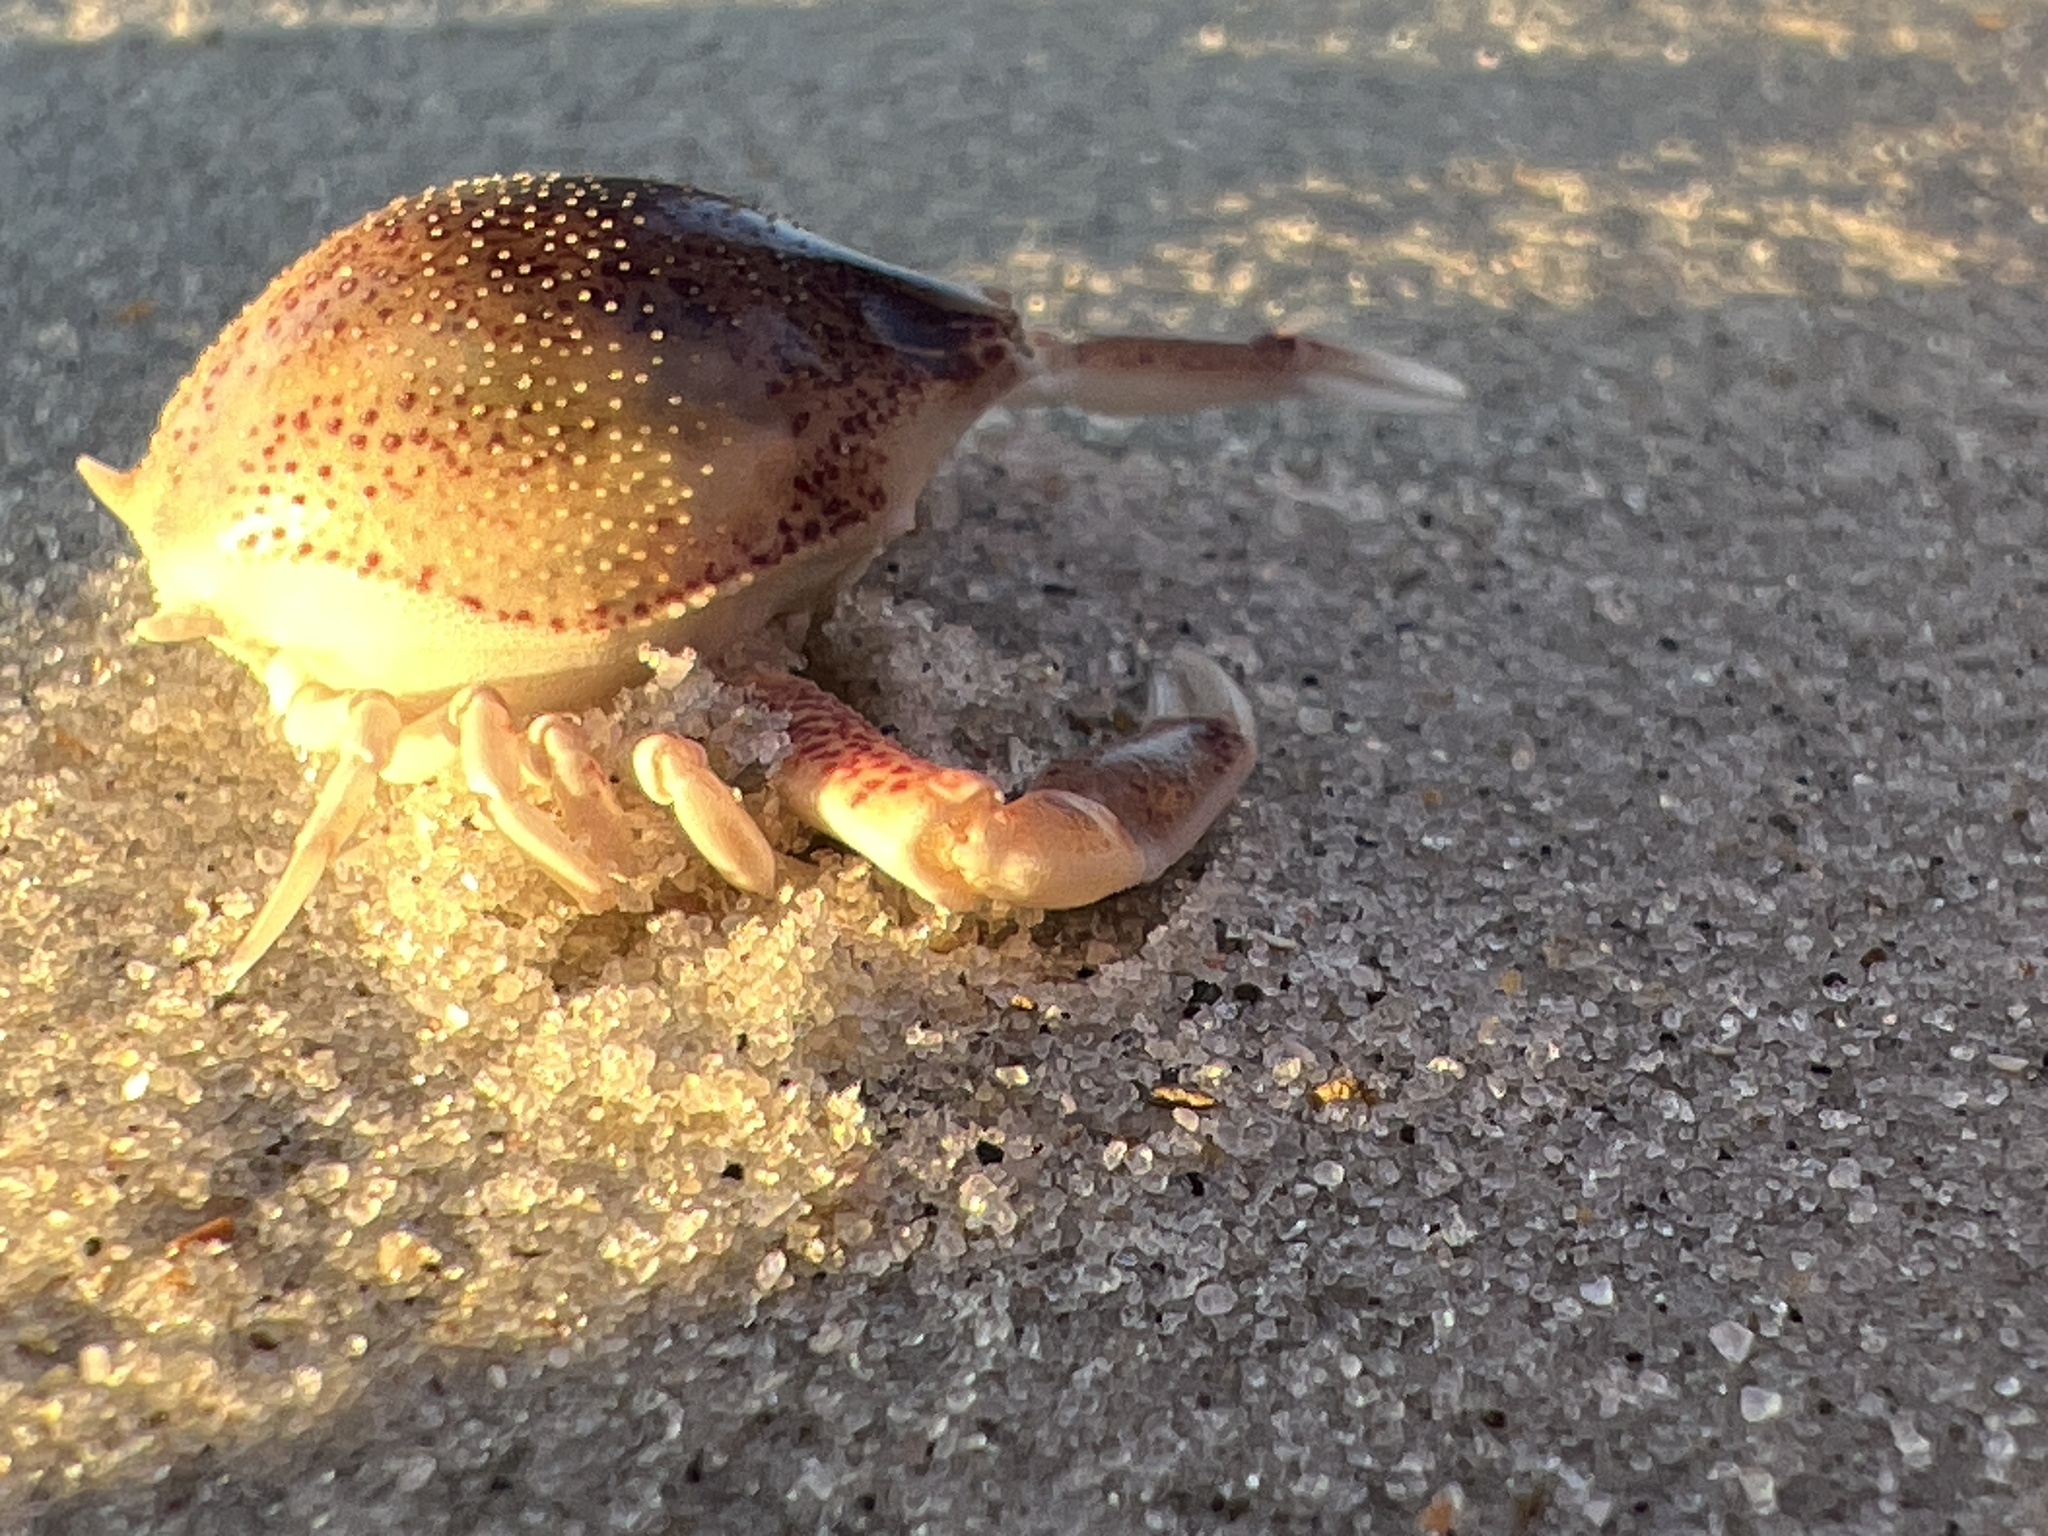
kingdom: Animalia
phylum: Arthropoda
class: Malacostraca
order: Decapoda
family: Leucosiidae
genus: Persephona
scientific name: Persephona aquilonaris
